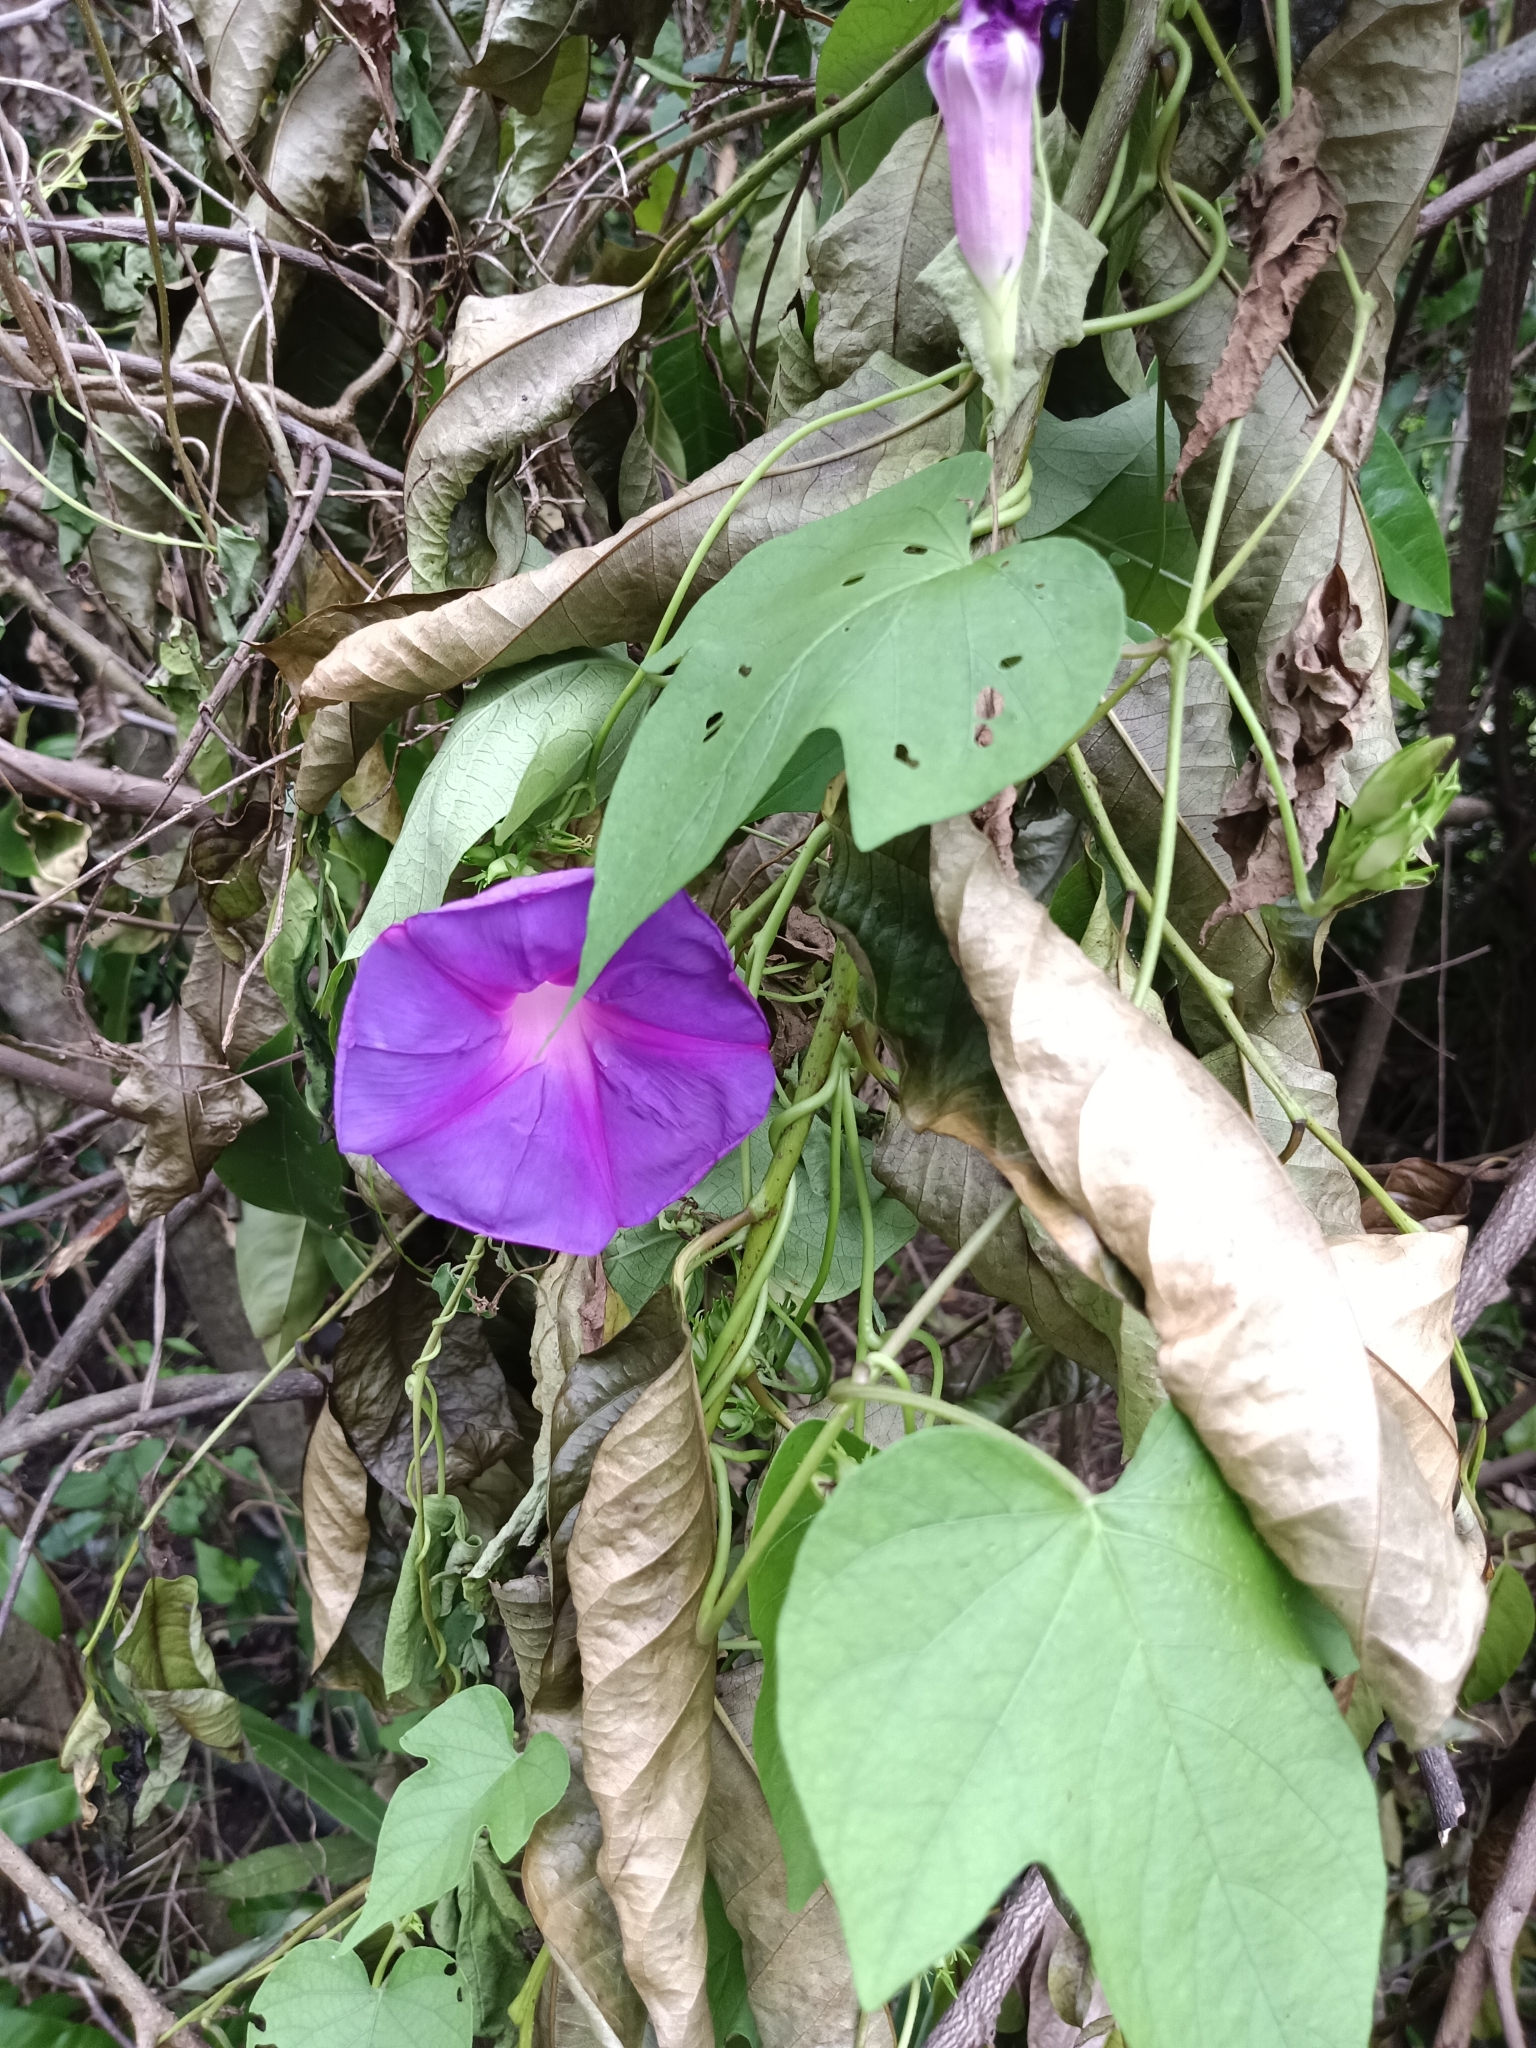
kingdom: Plantae
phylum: Tracheophyta
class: Magnoliopsida
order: Solanales
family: Convolvulaceae
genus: Ipomoea
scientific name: Ipomoea indica
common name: Blue dawnflower
